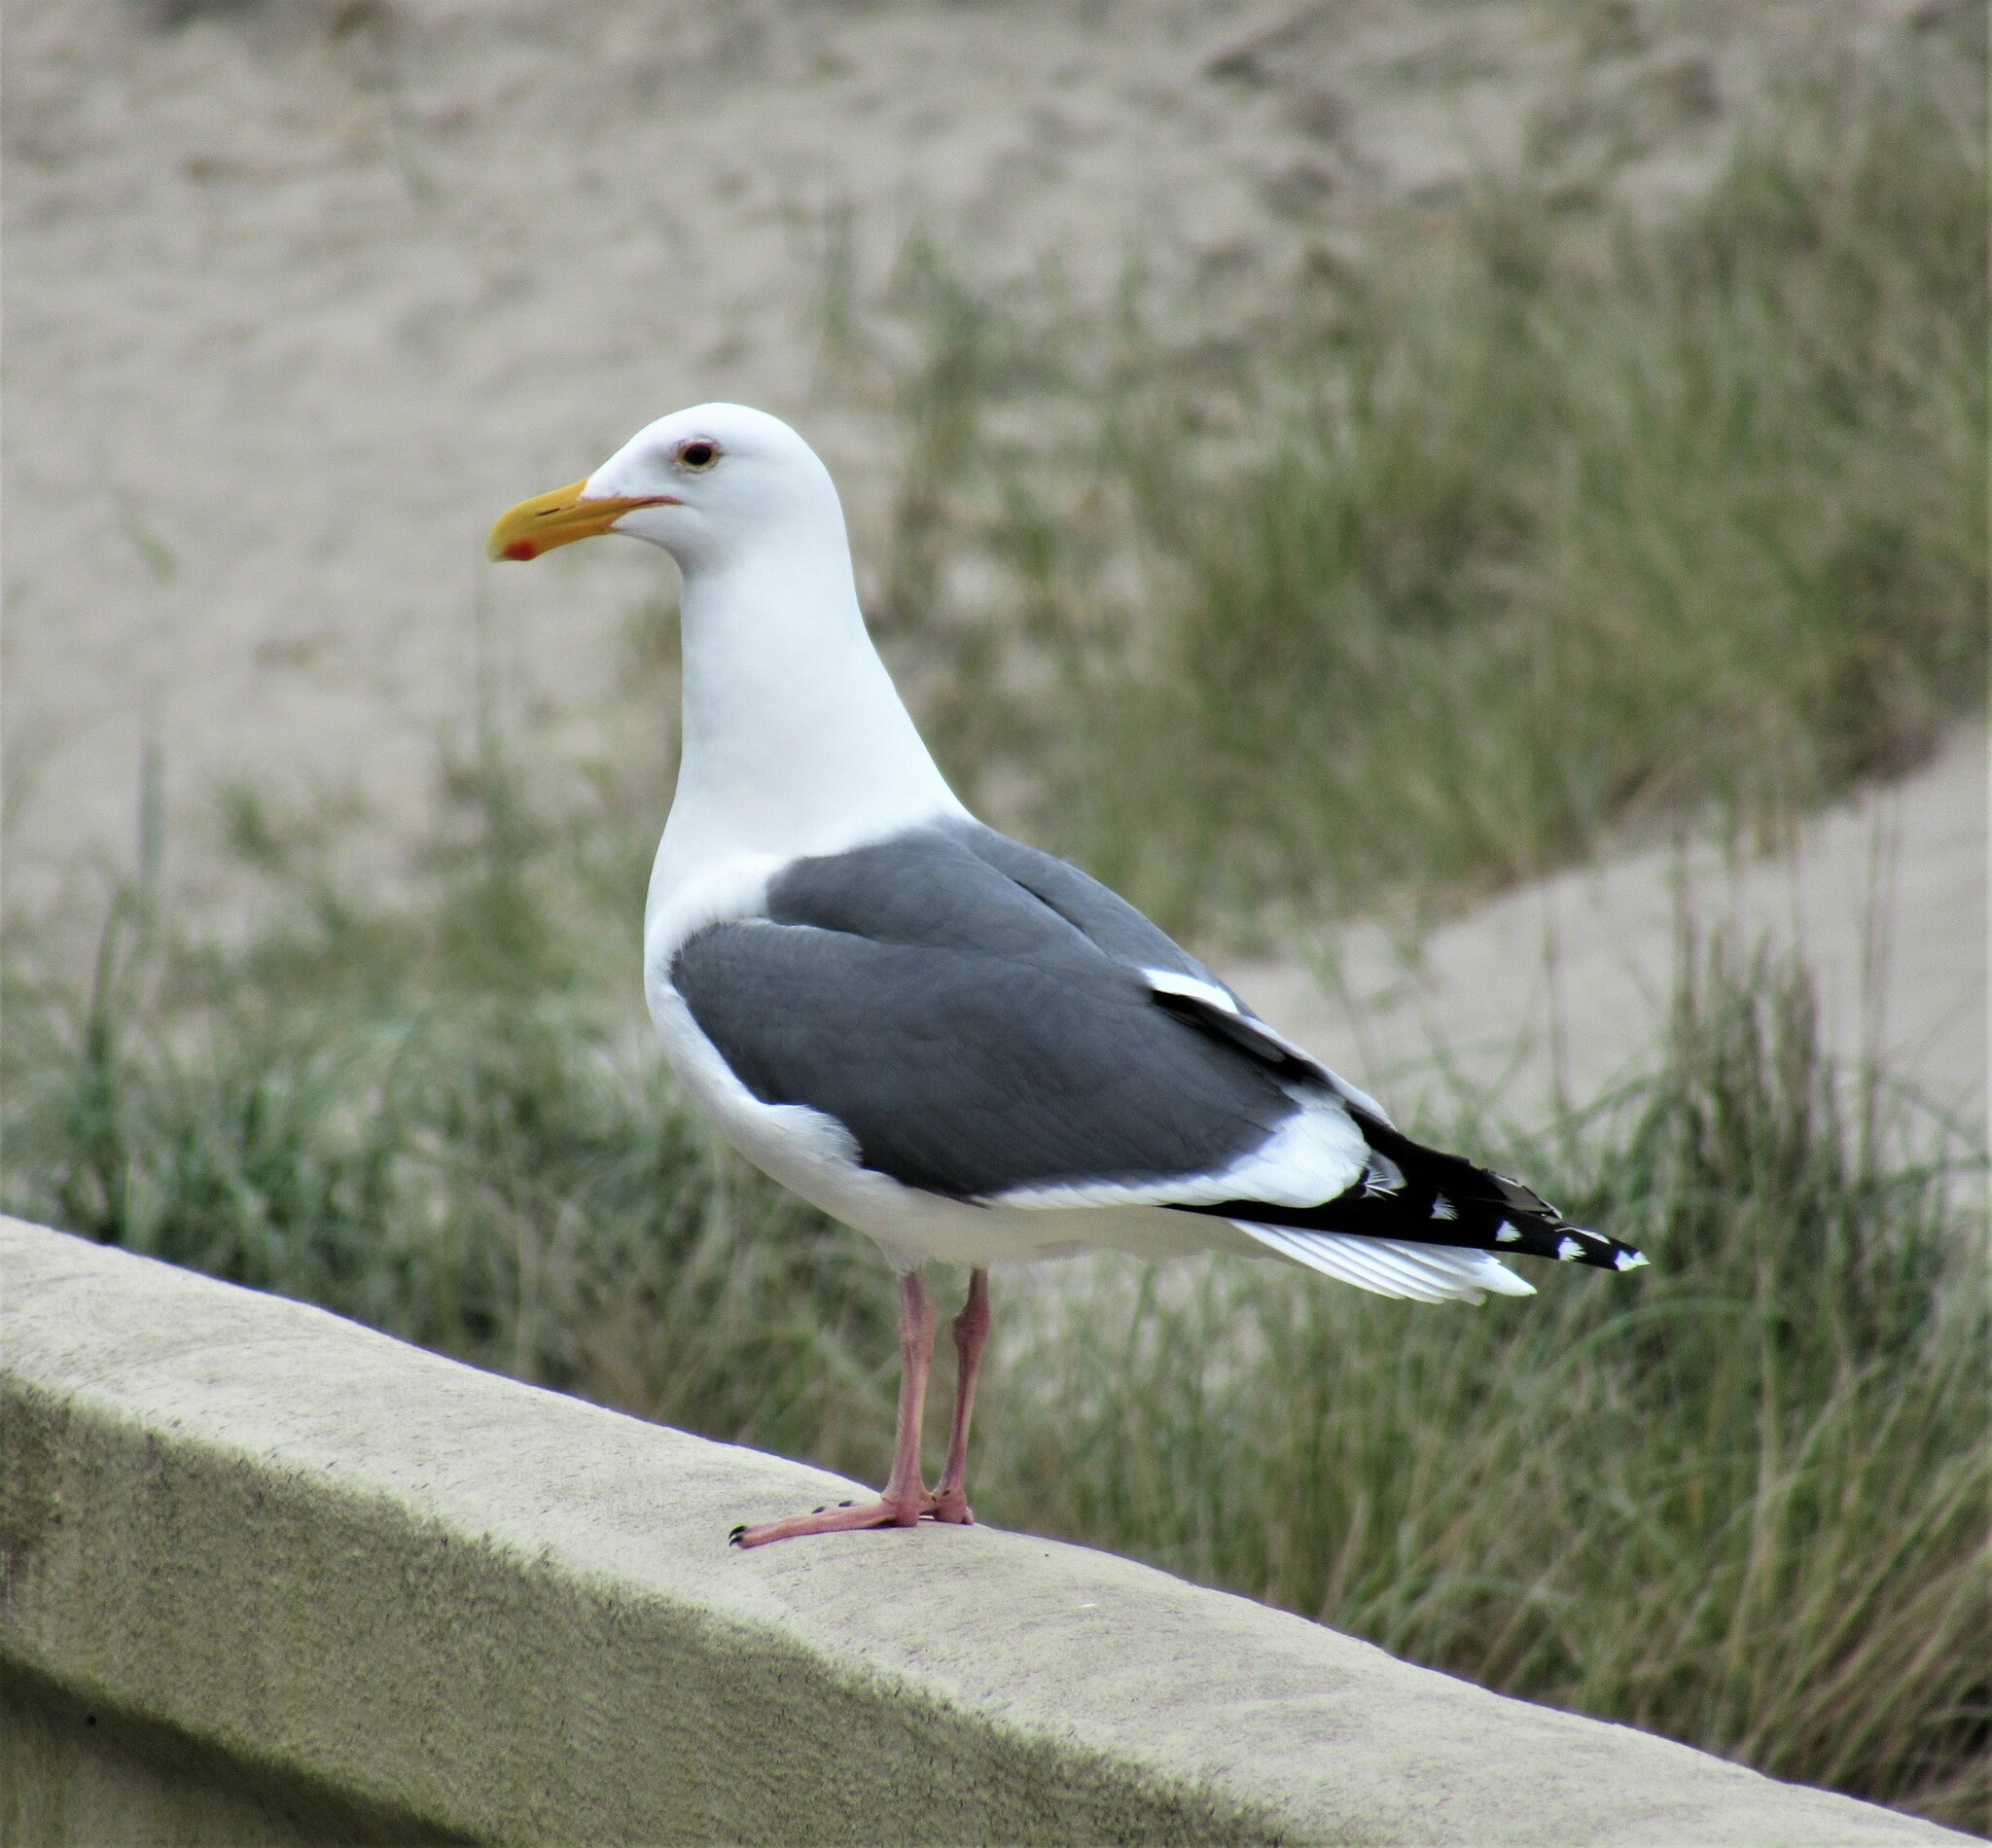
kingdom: Animalia
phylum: Chordata
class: Aves
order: Charadriiformes
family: Laridae
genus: Larus
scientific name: Larus occidentalis
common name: Western gull
